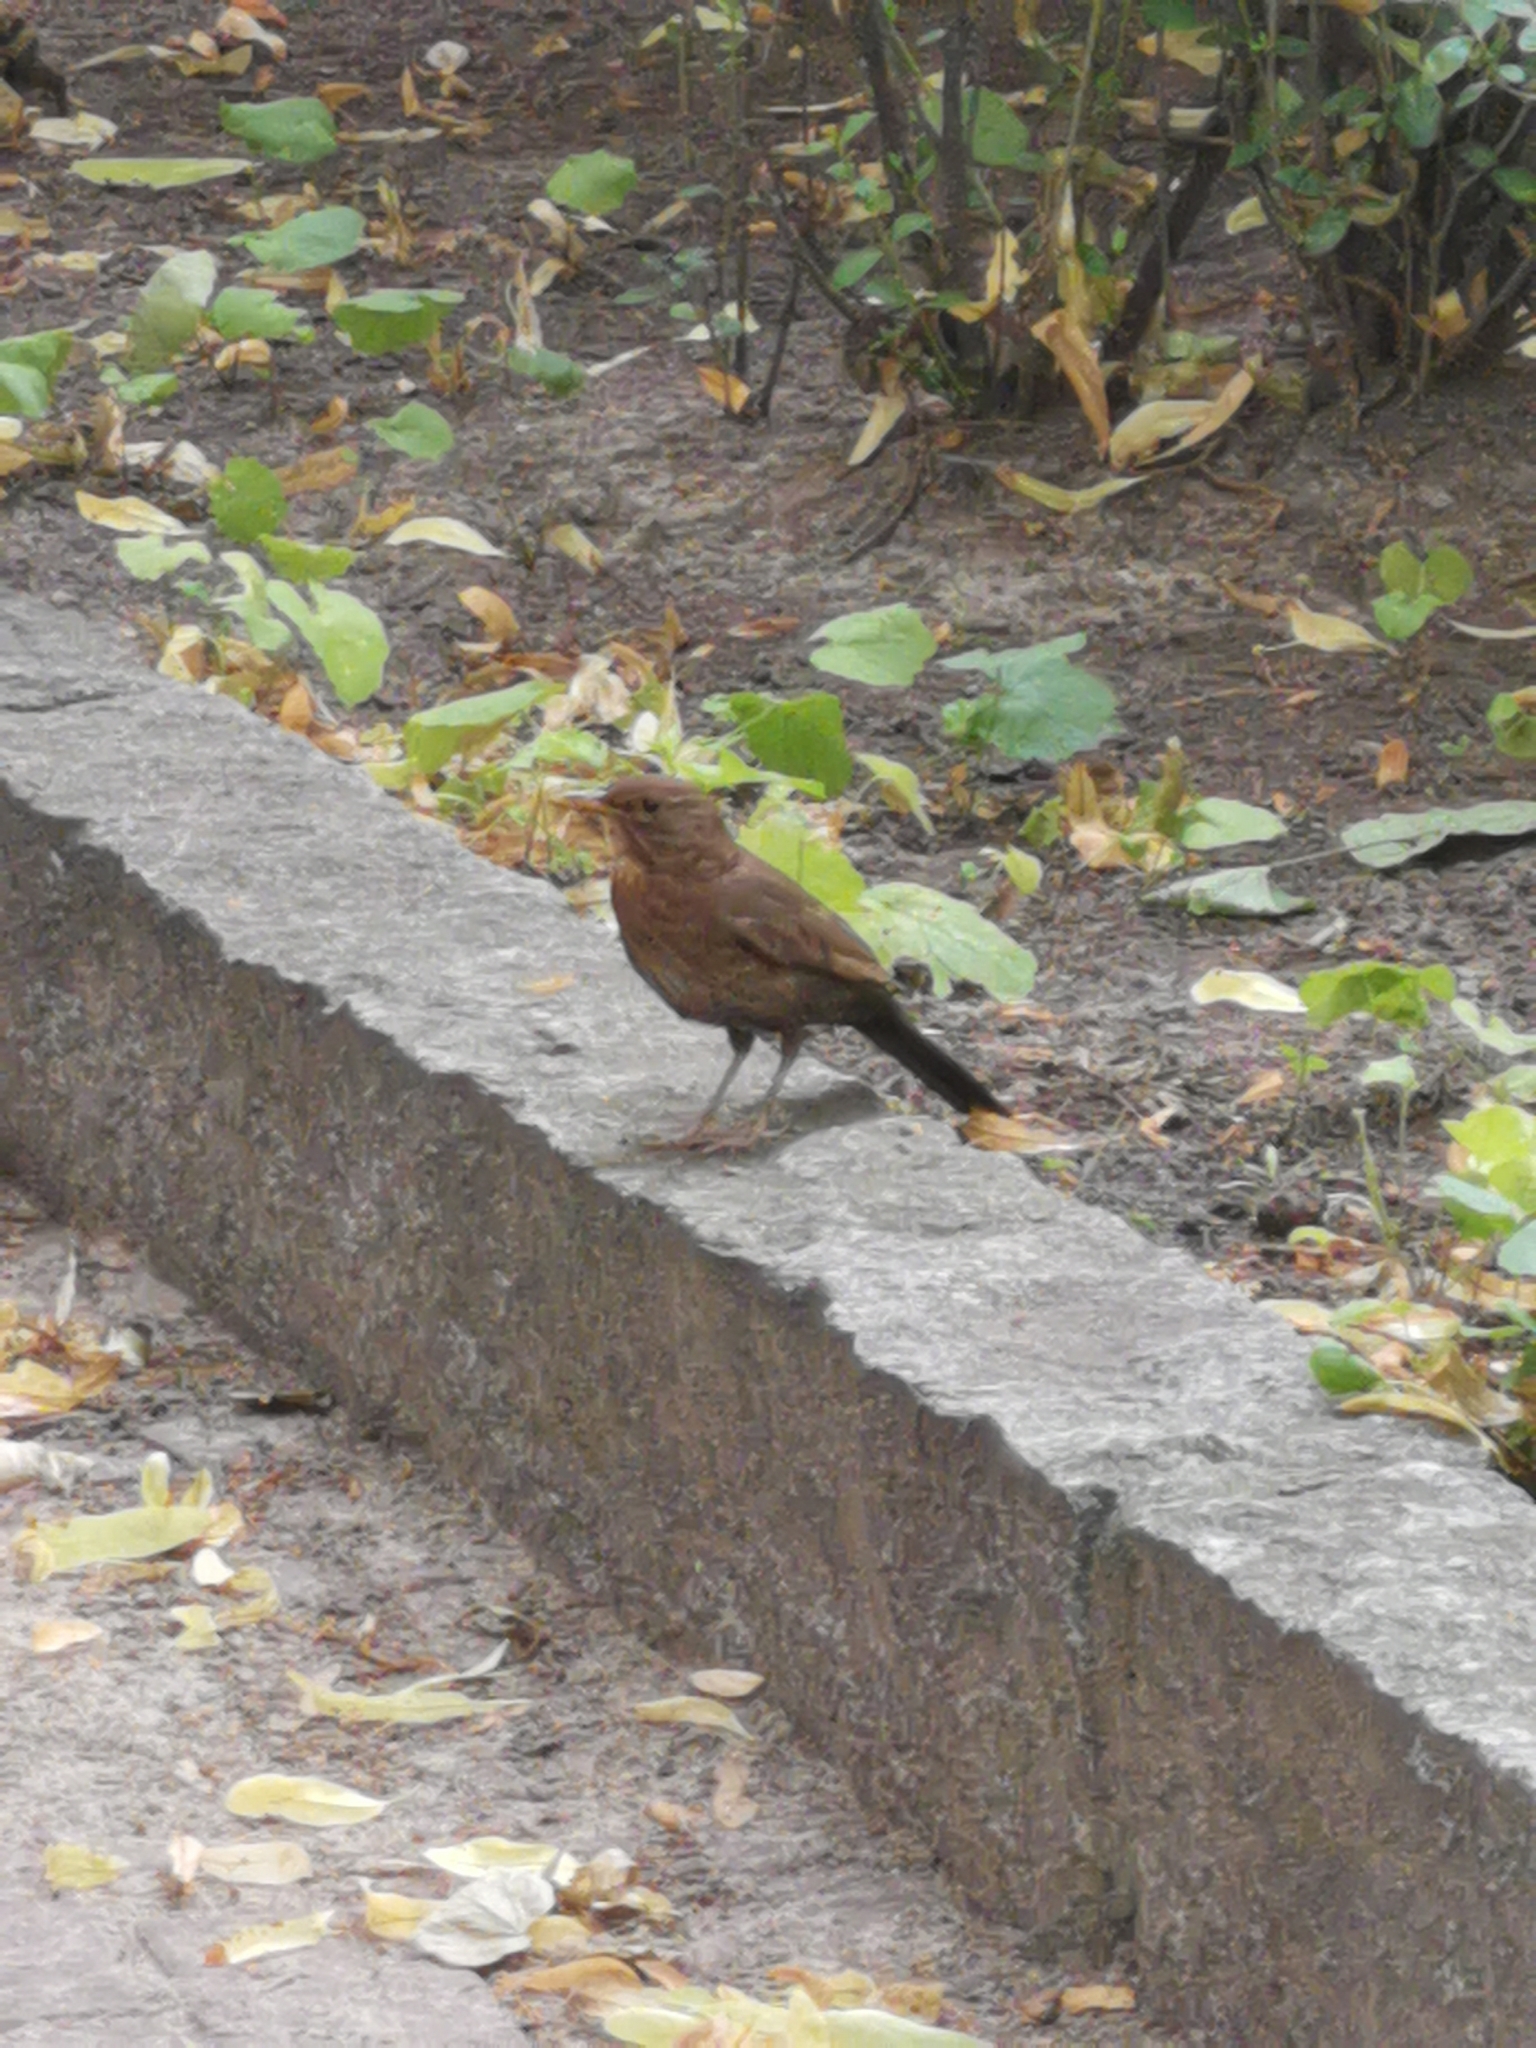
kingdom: Animalia
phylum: Chordata
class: Aves
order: Passeriformes
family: Turdidae
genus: Turdus
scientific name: Turdus merula
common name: Common blackbird
